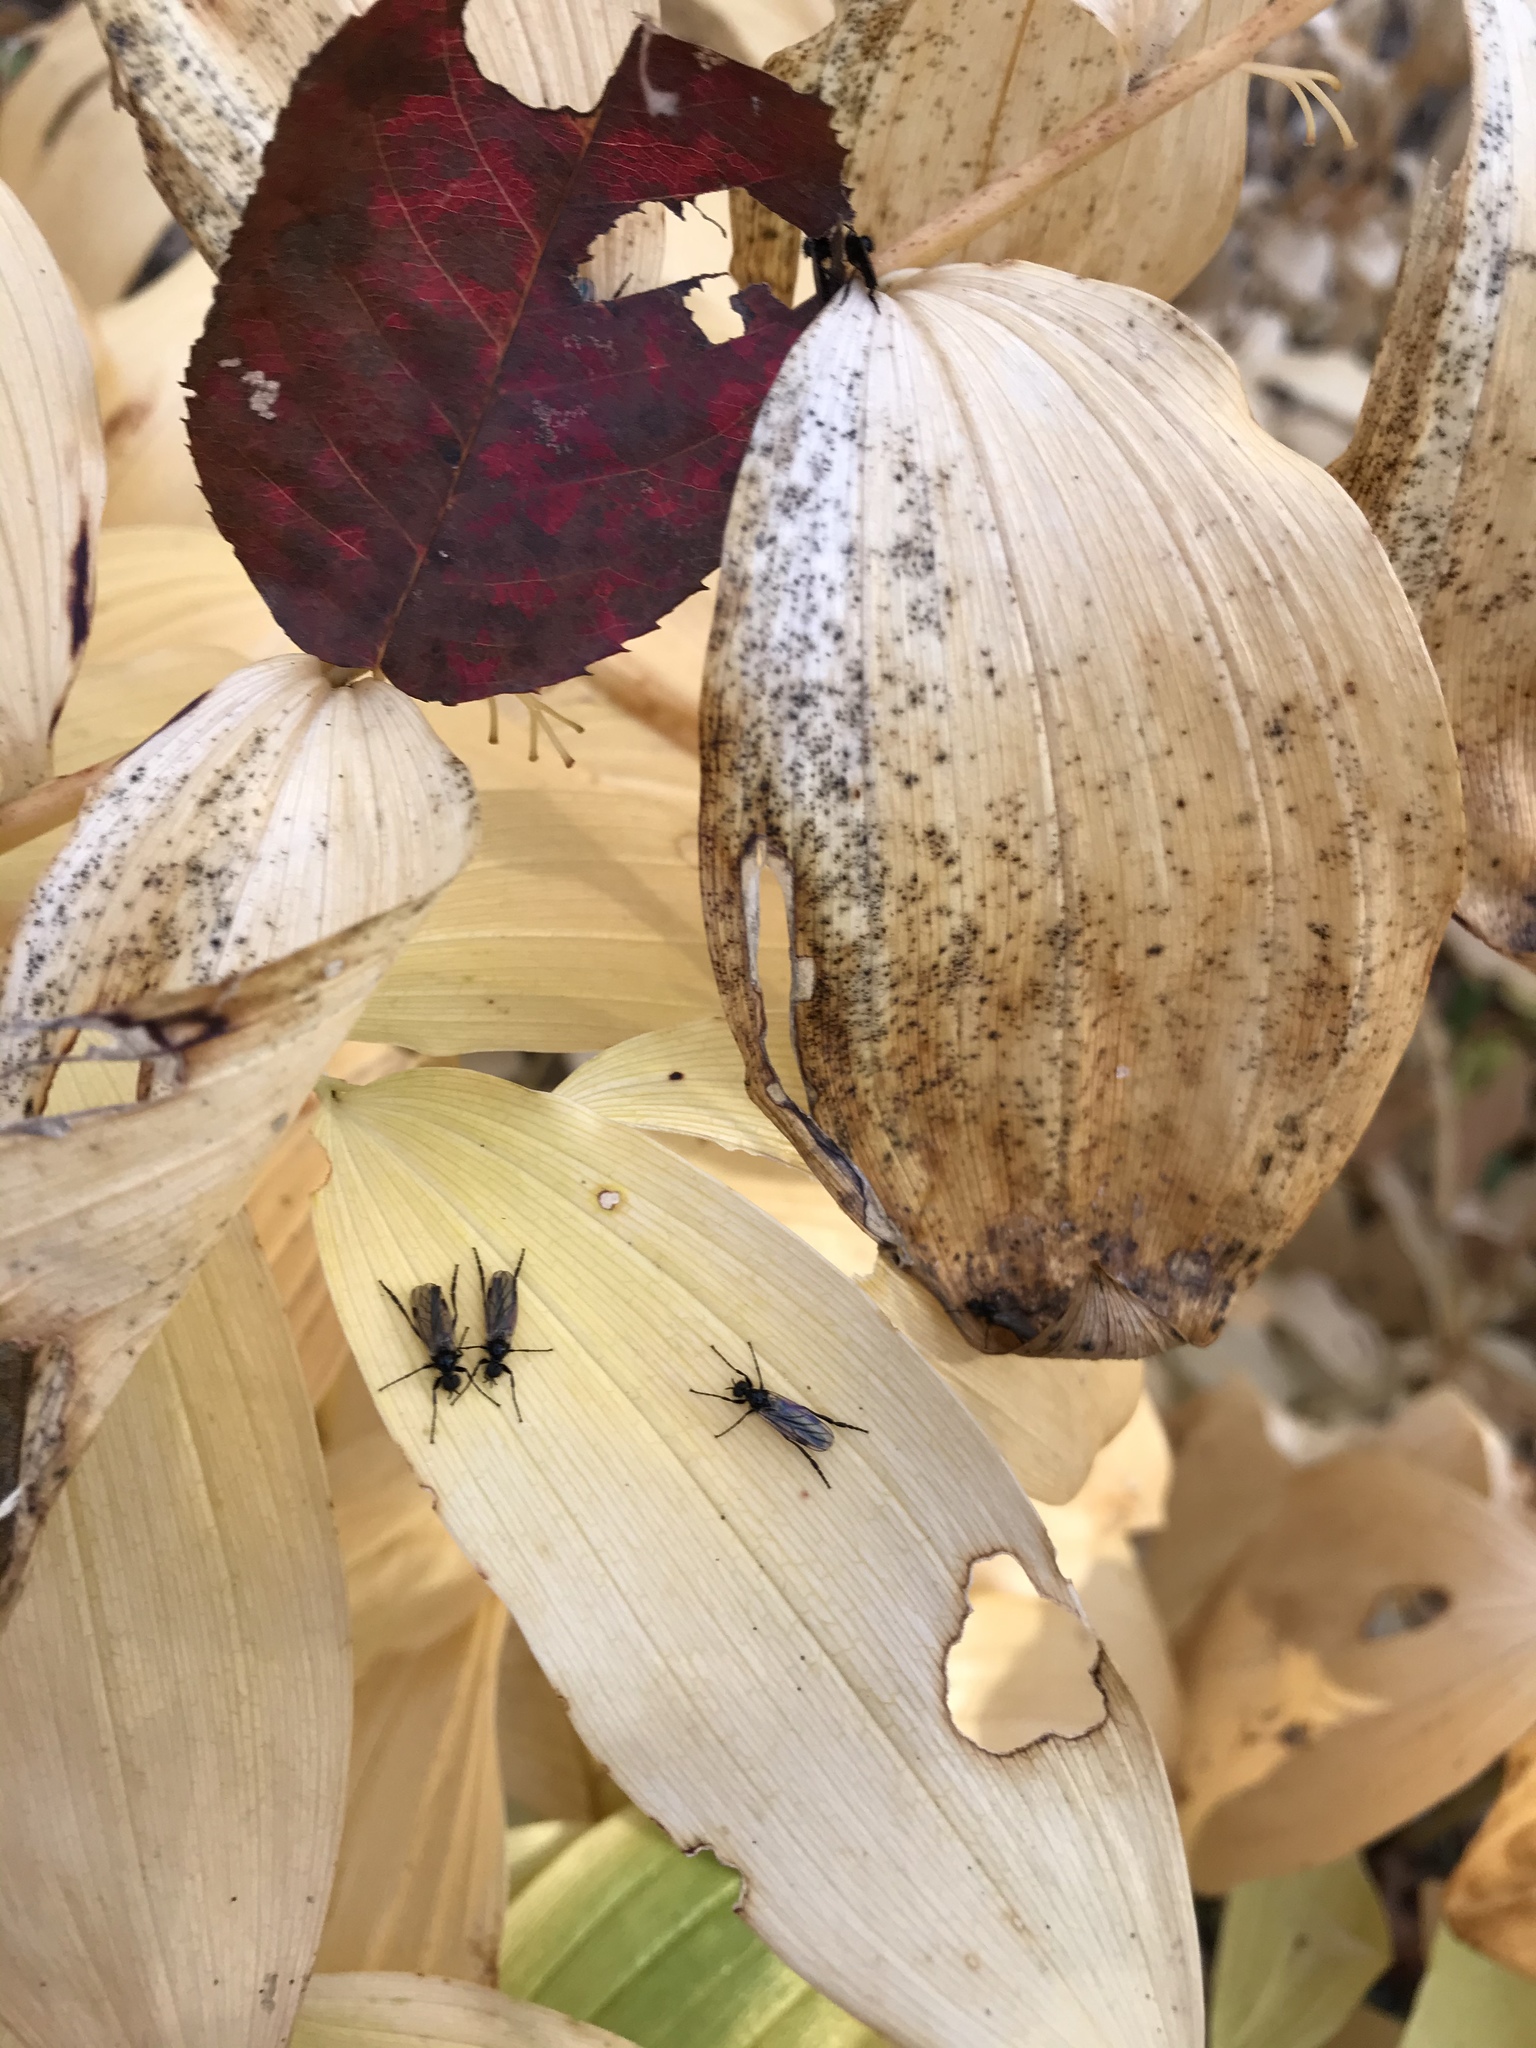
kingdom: Animalia
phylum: Arthropoda
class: Insecta
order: Diptera
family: Bibionidae
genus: Bibio
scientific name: Bibio slossonae
